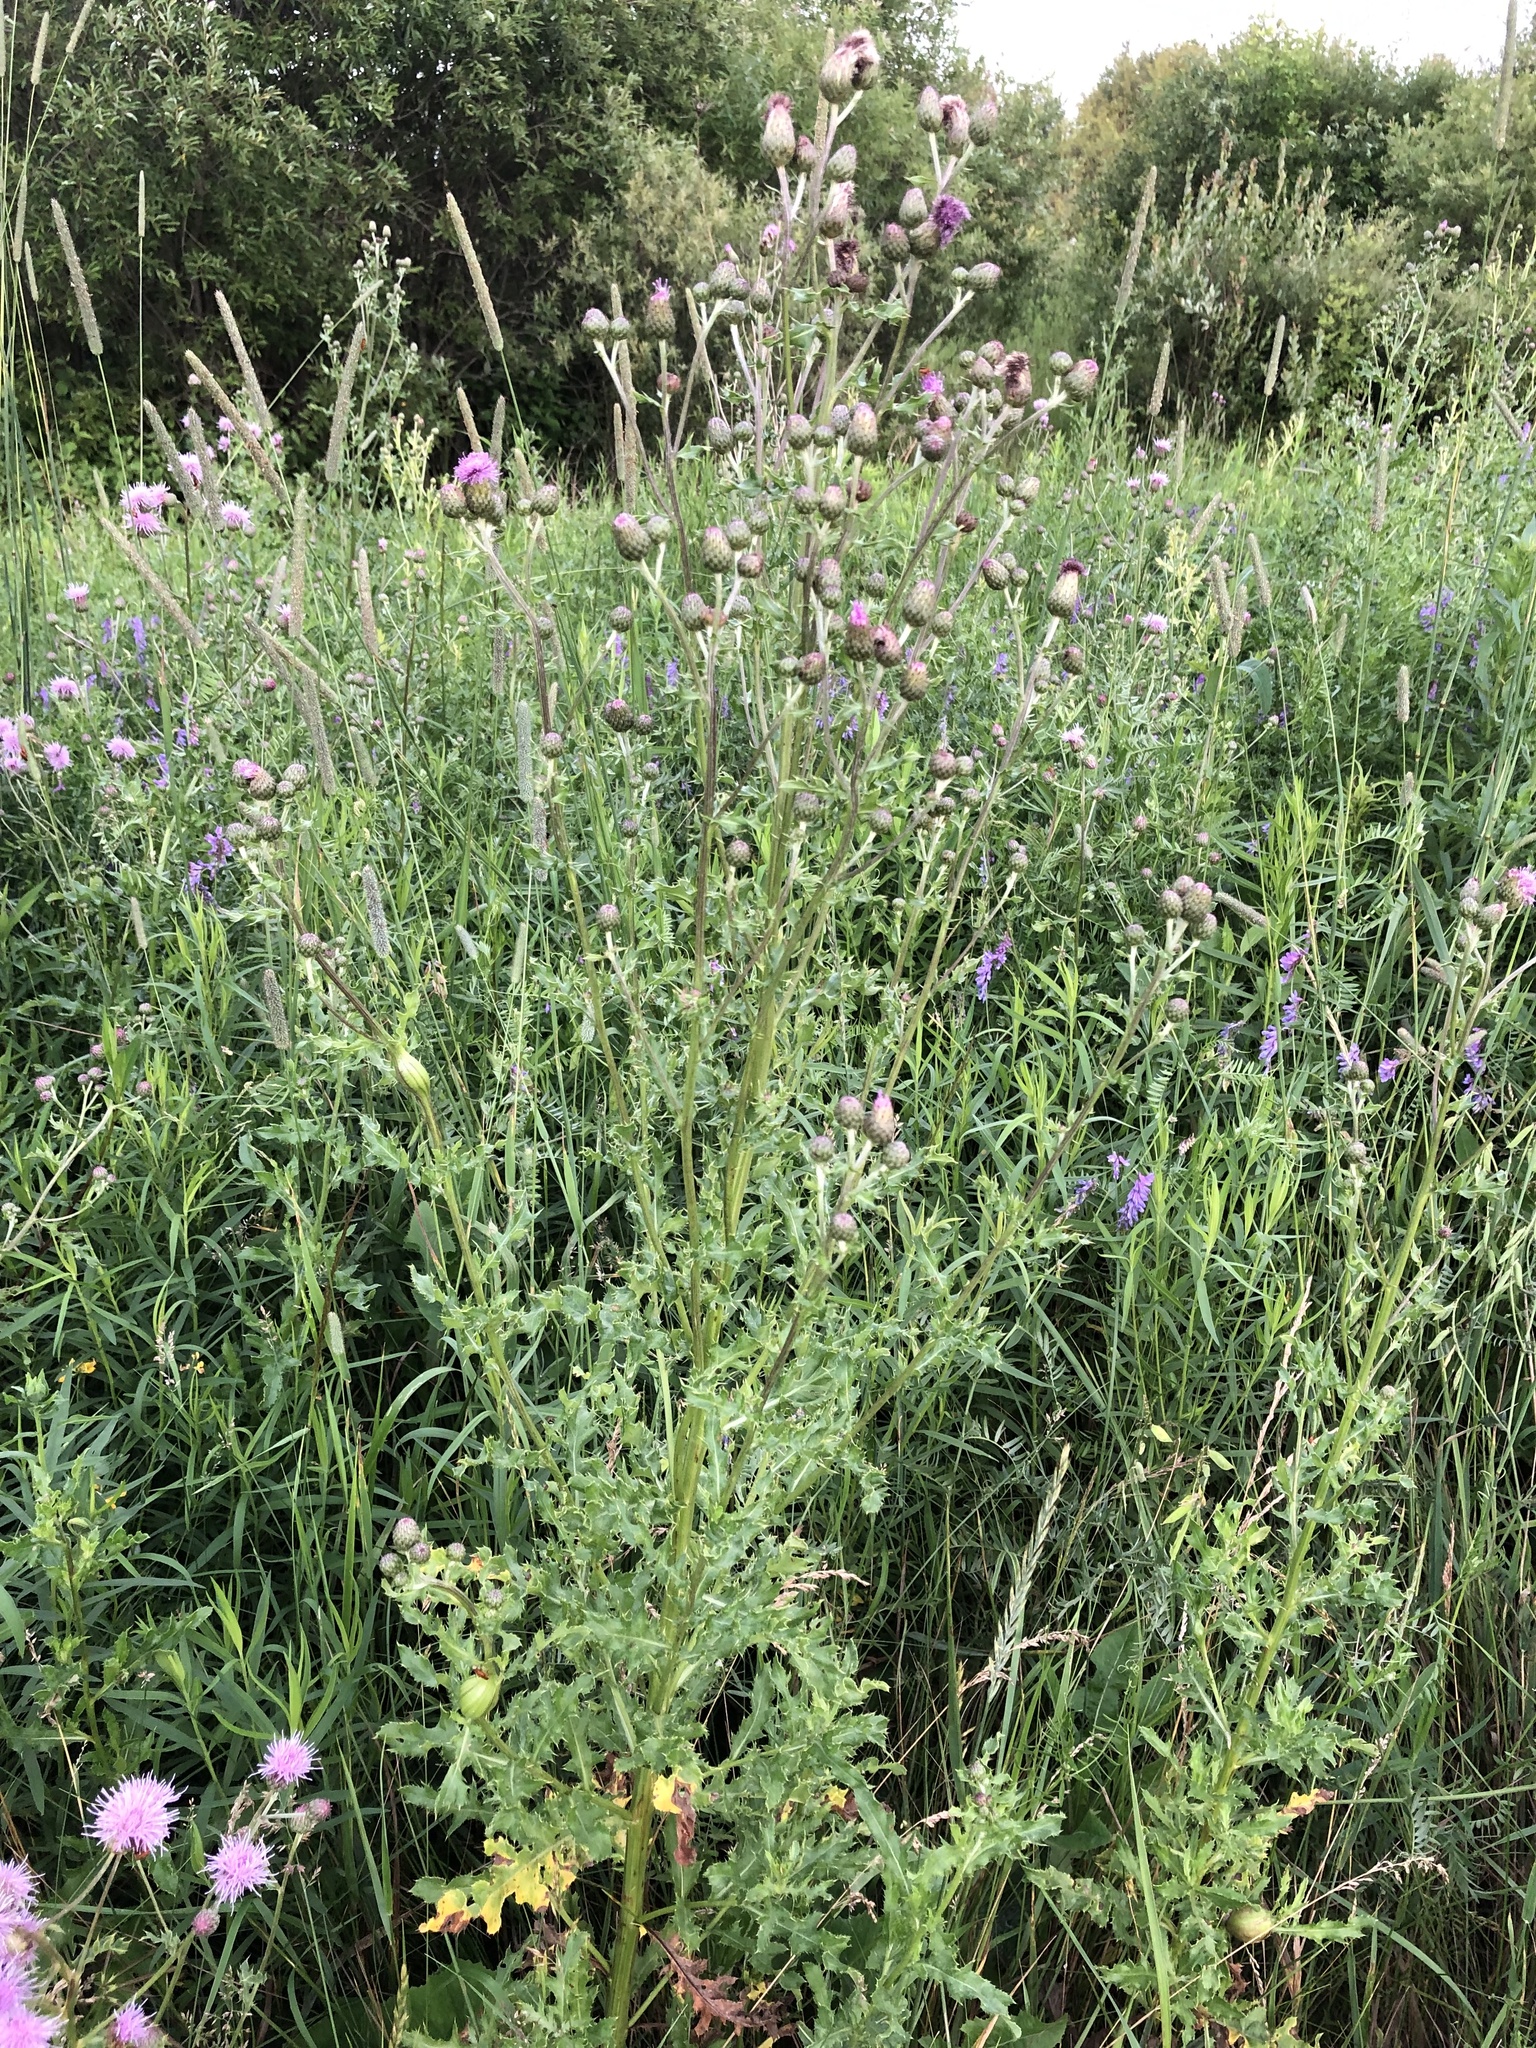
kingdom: Plantae
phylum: Tracheophyta
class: Magnoliopsida
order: Asterales
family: Asteraceae
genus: Cirsium
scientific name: Cirsium arvense
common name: Creeping thistle
